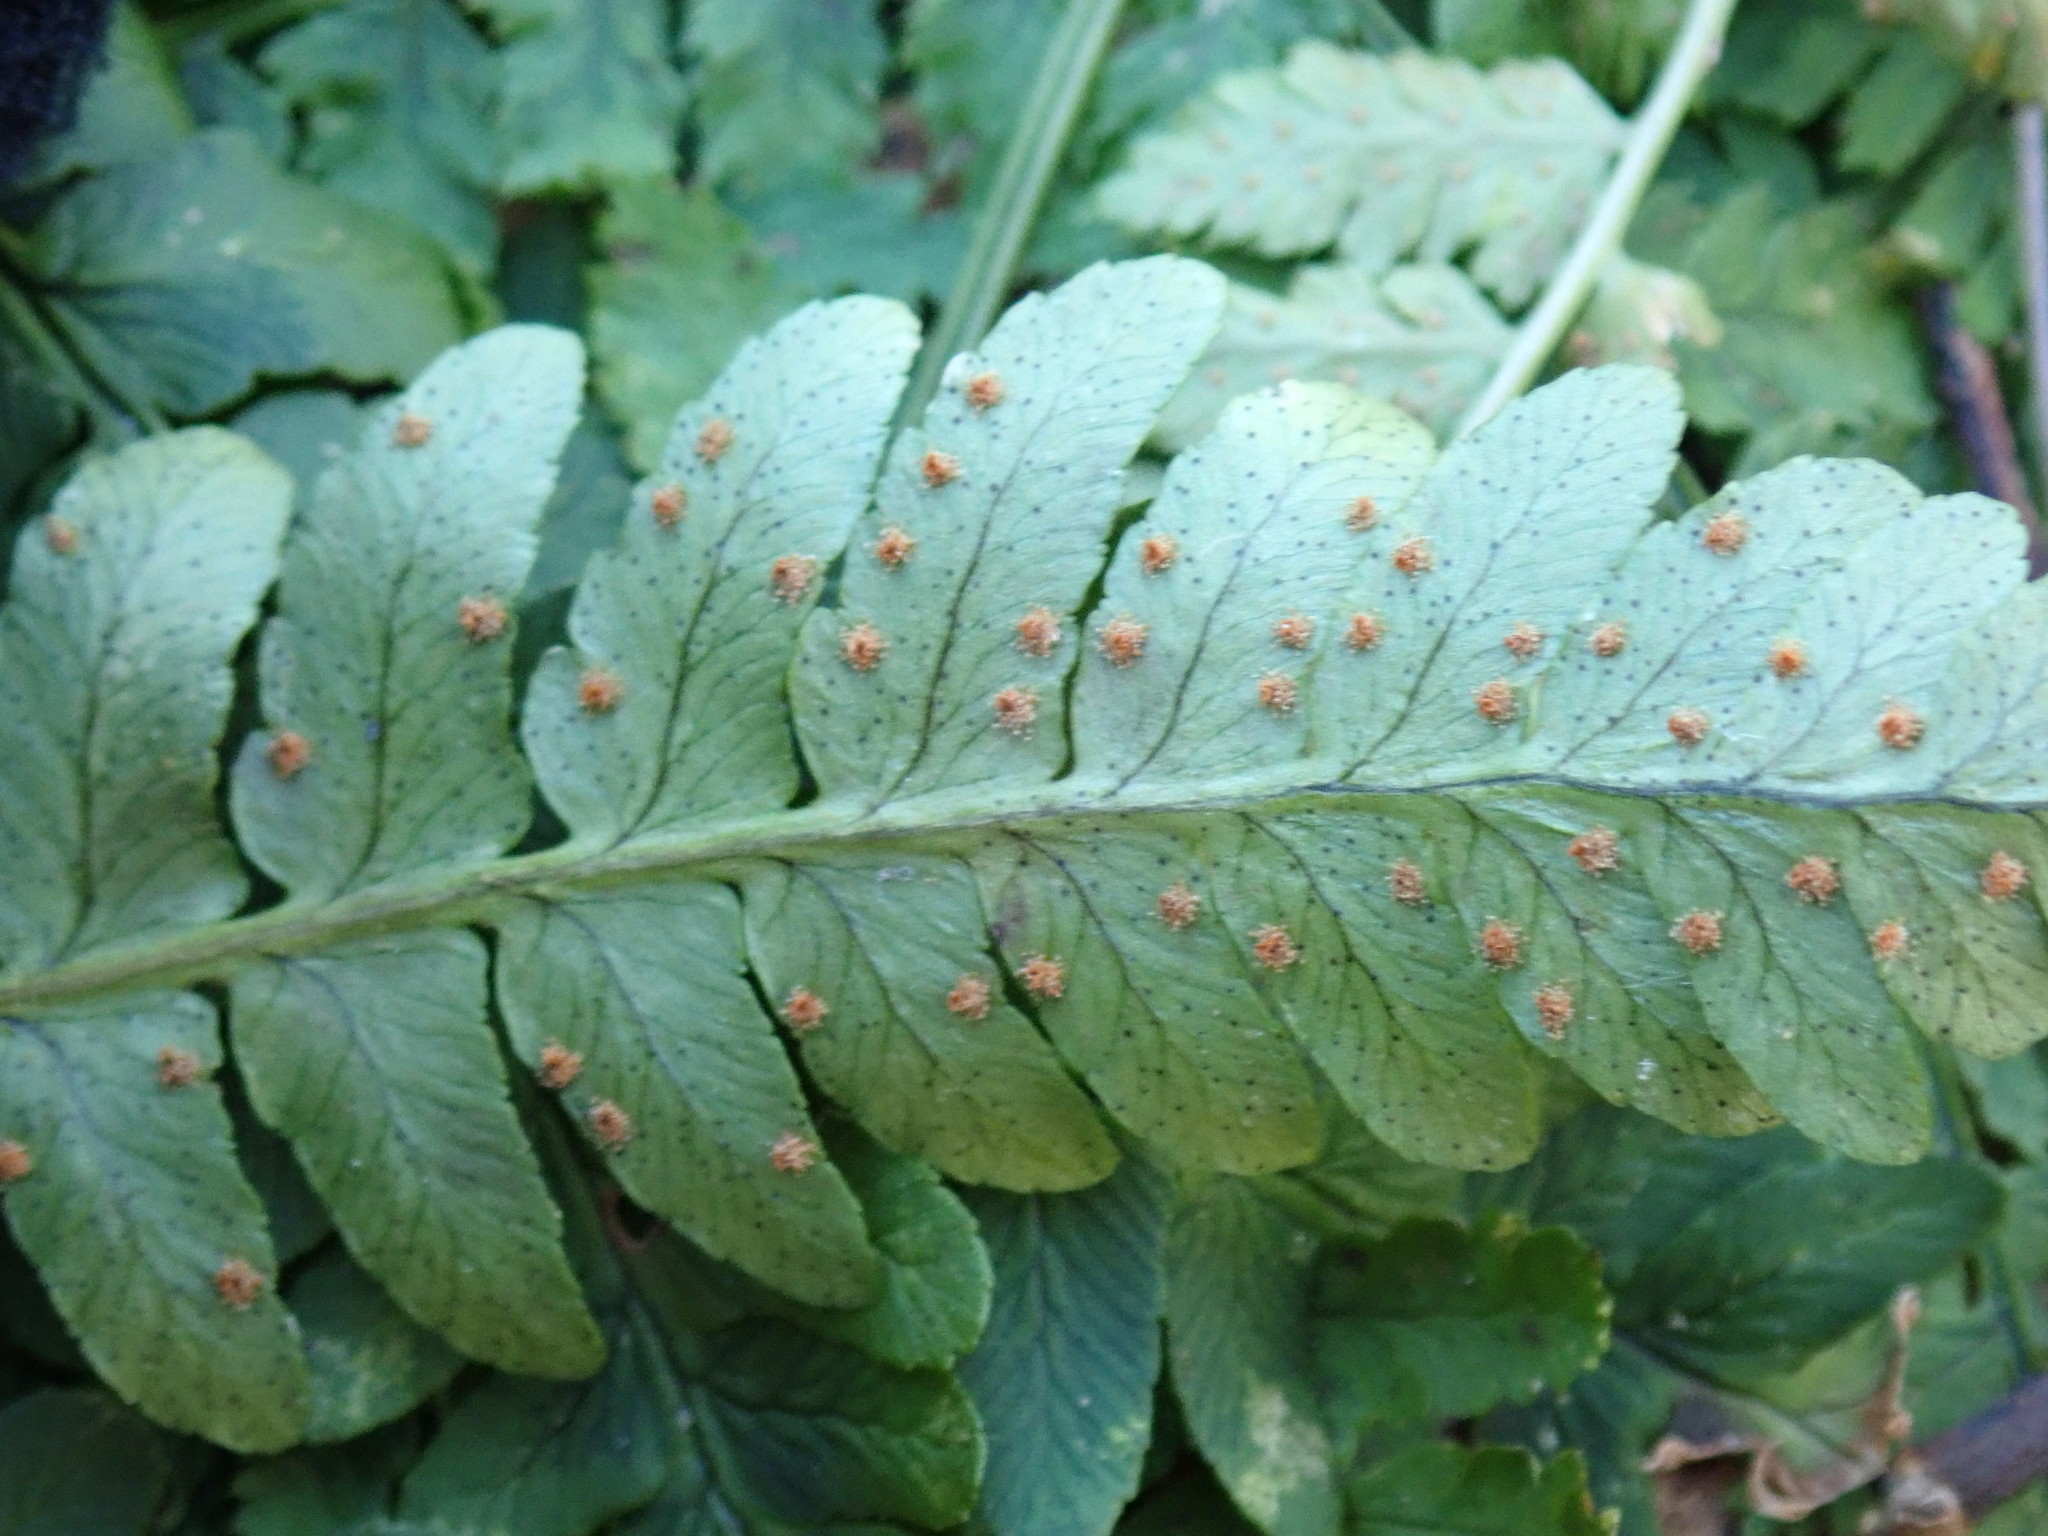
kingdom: Plantae
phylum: Tracheophyta
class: Polypodiopsida
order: Polypodiales
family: Dryopteridaceae
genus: Dryopteris
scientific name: Dryopteris marginalis
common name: Marginal wood fern
